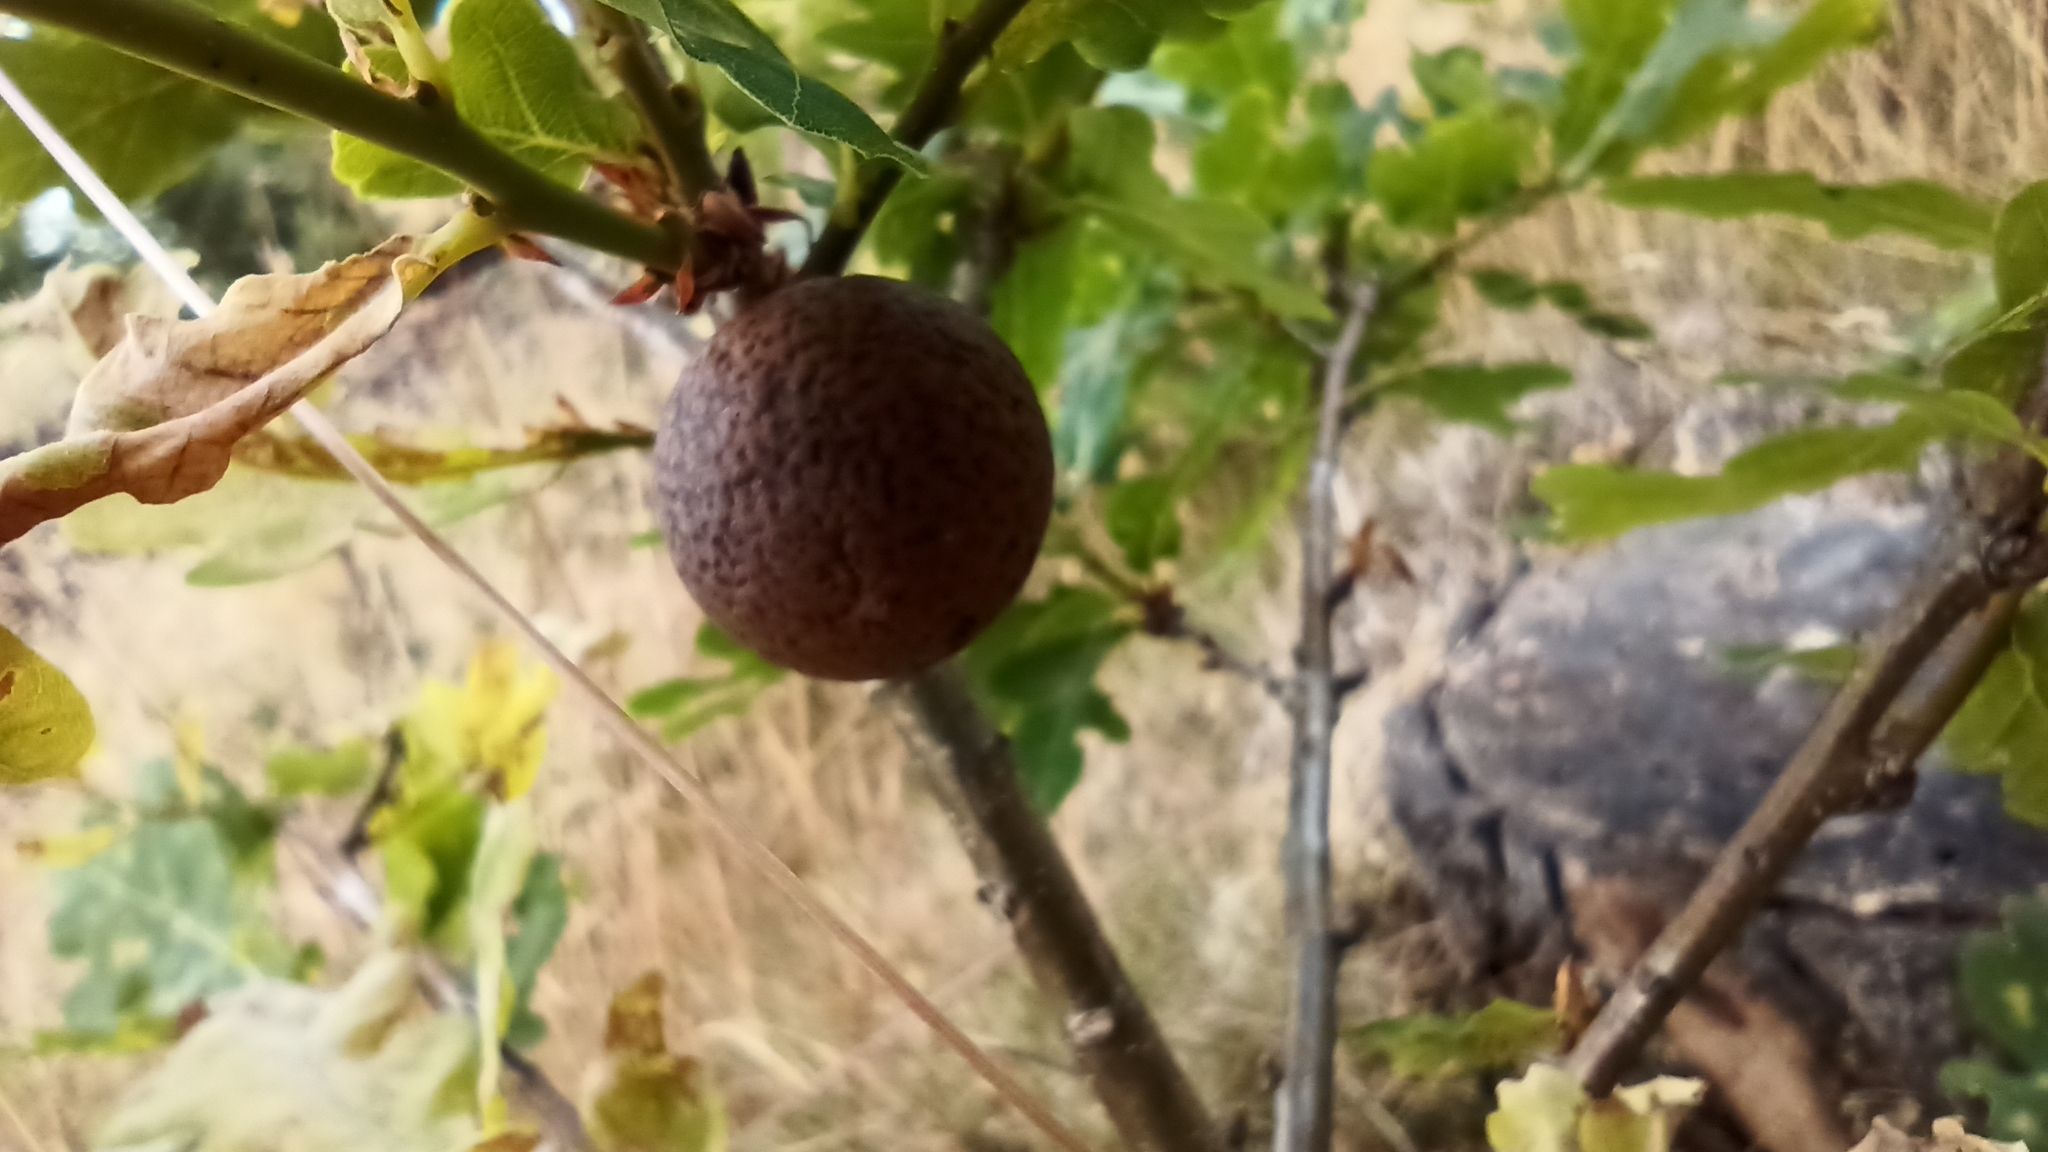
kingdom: Animalia
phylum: Arthropoda
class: Insecta
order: Hymenoptera
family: Cynipidae
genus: Andricus
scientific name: Andricus kollari
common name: Marble gall
